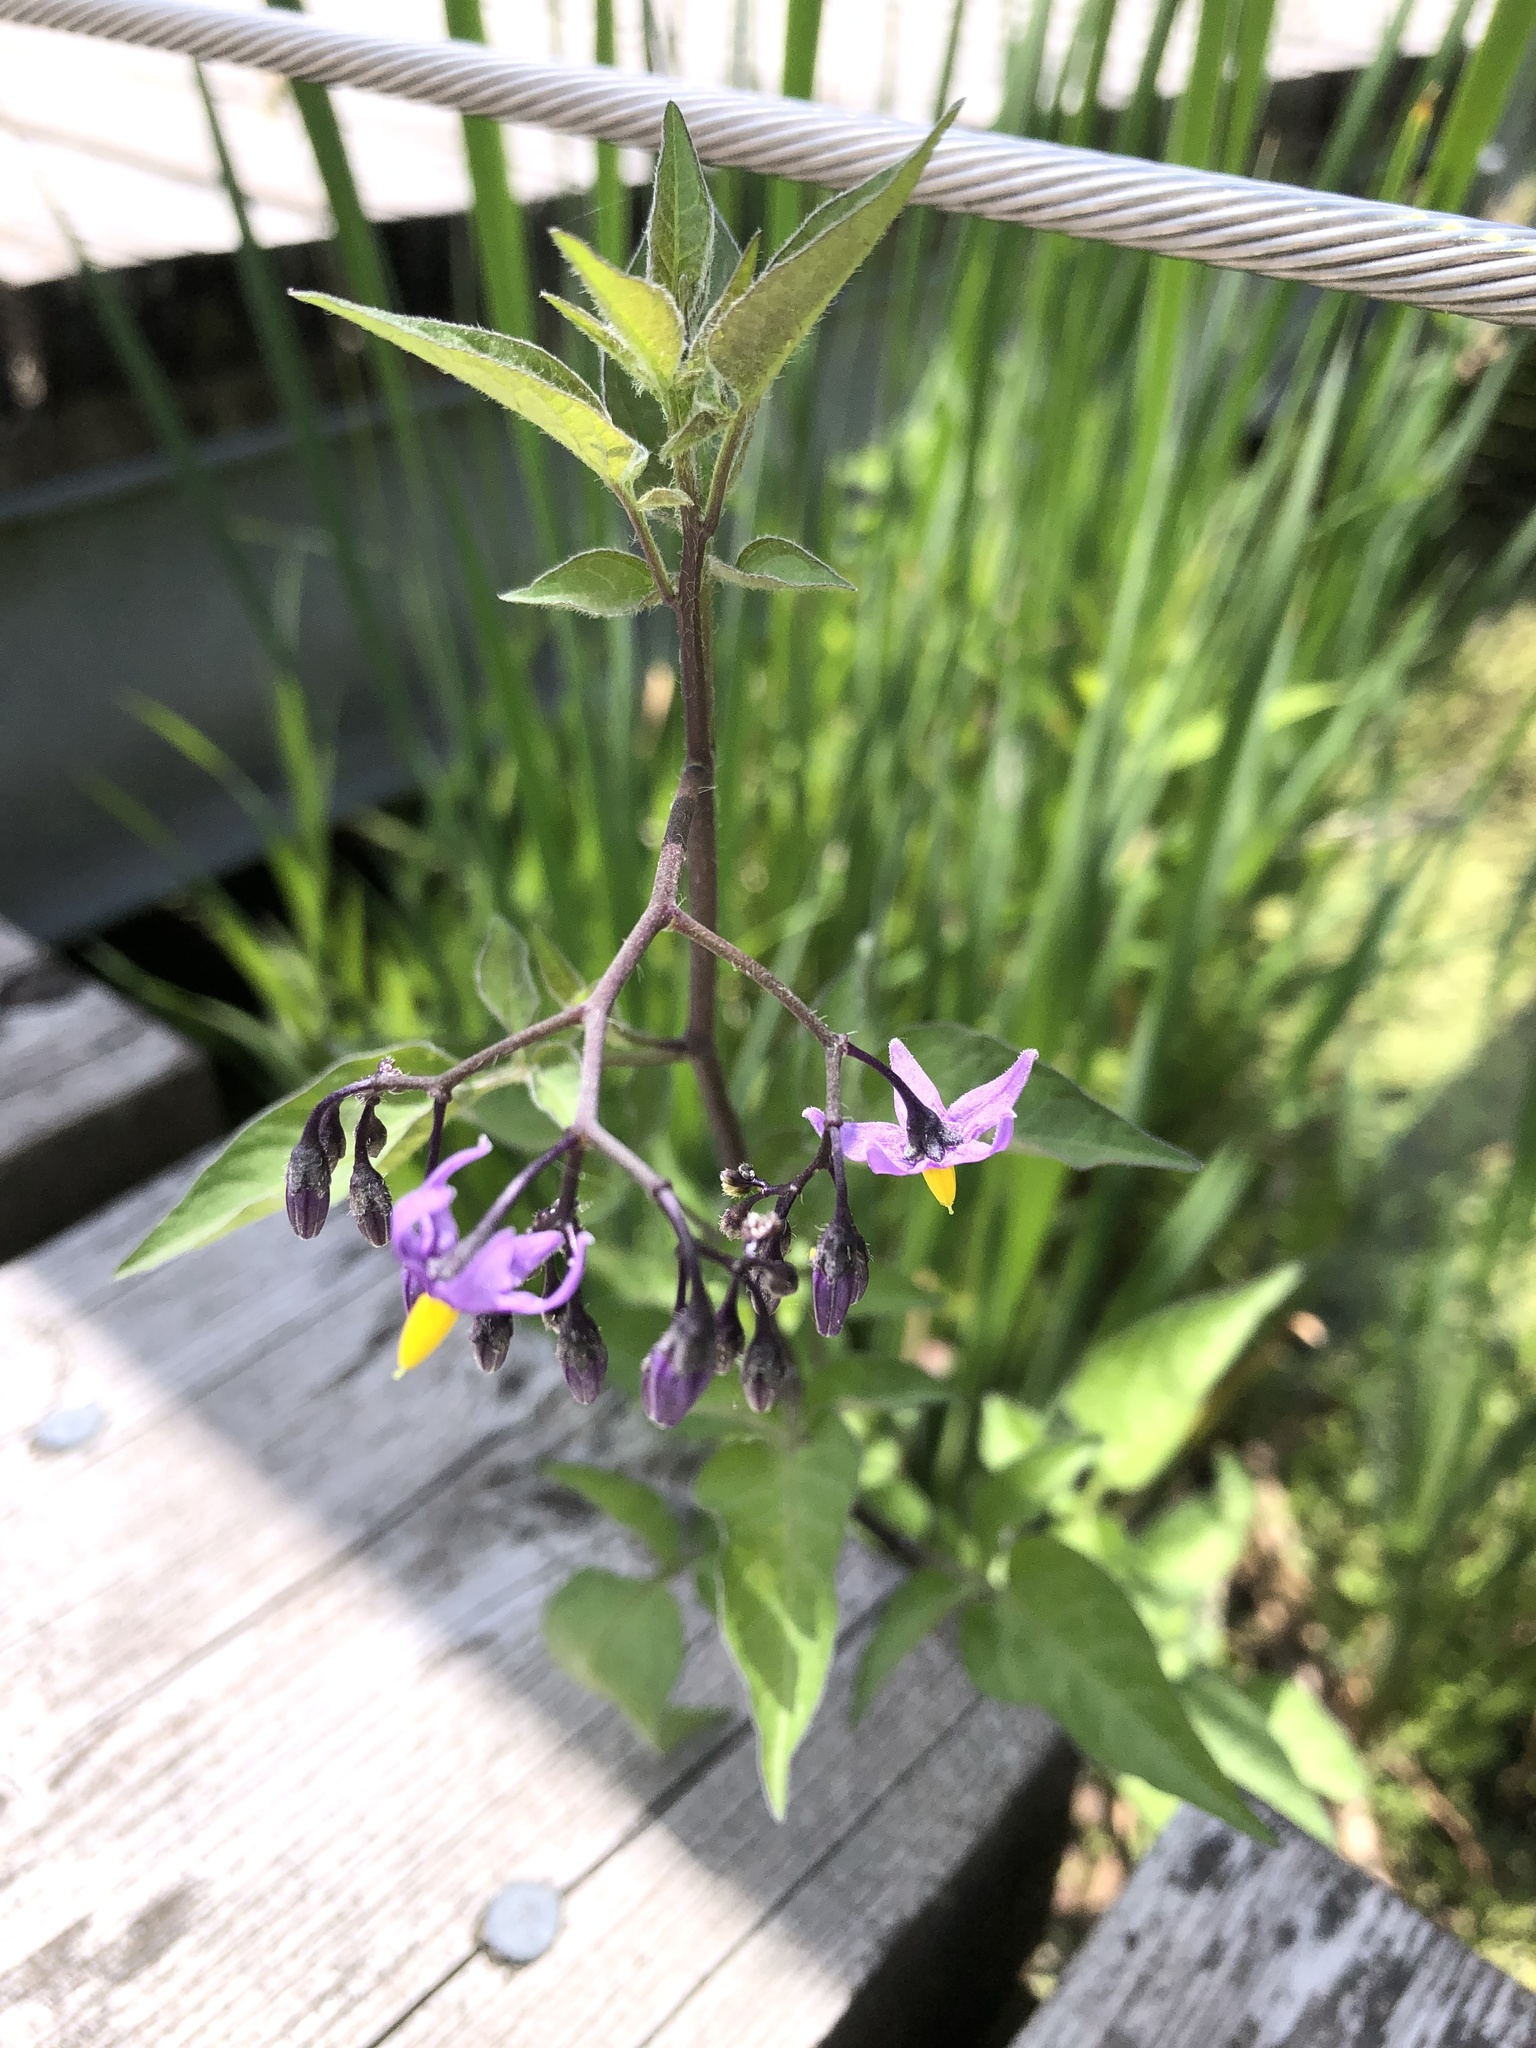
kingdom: Plantae
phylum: Tracheophyta
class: Magnoliopsida
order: Solanales
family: Solanaceae
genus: Solanum
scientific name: Solanum dulcamara
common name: Climbing nightshade
